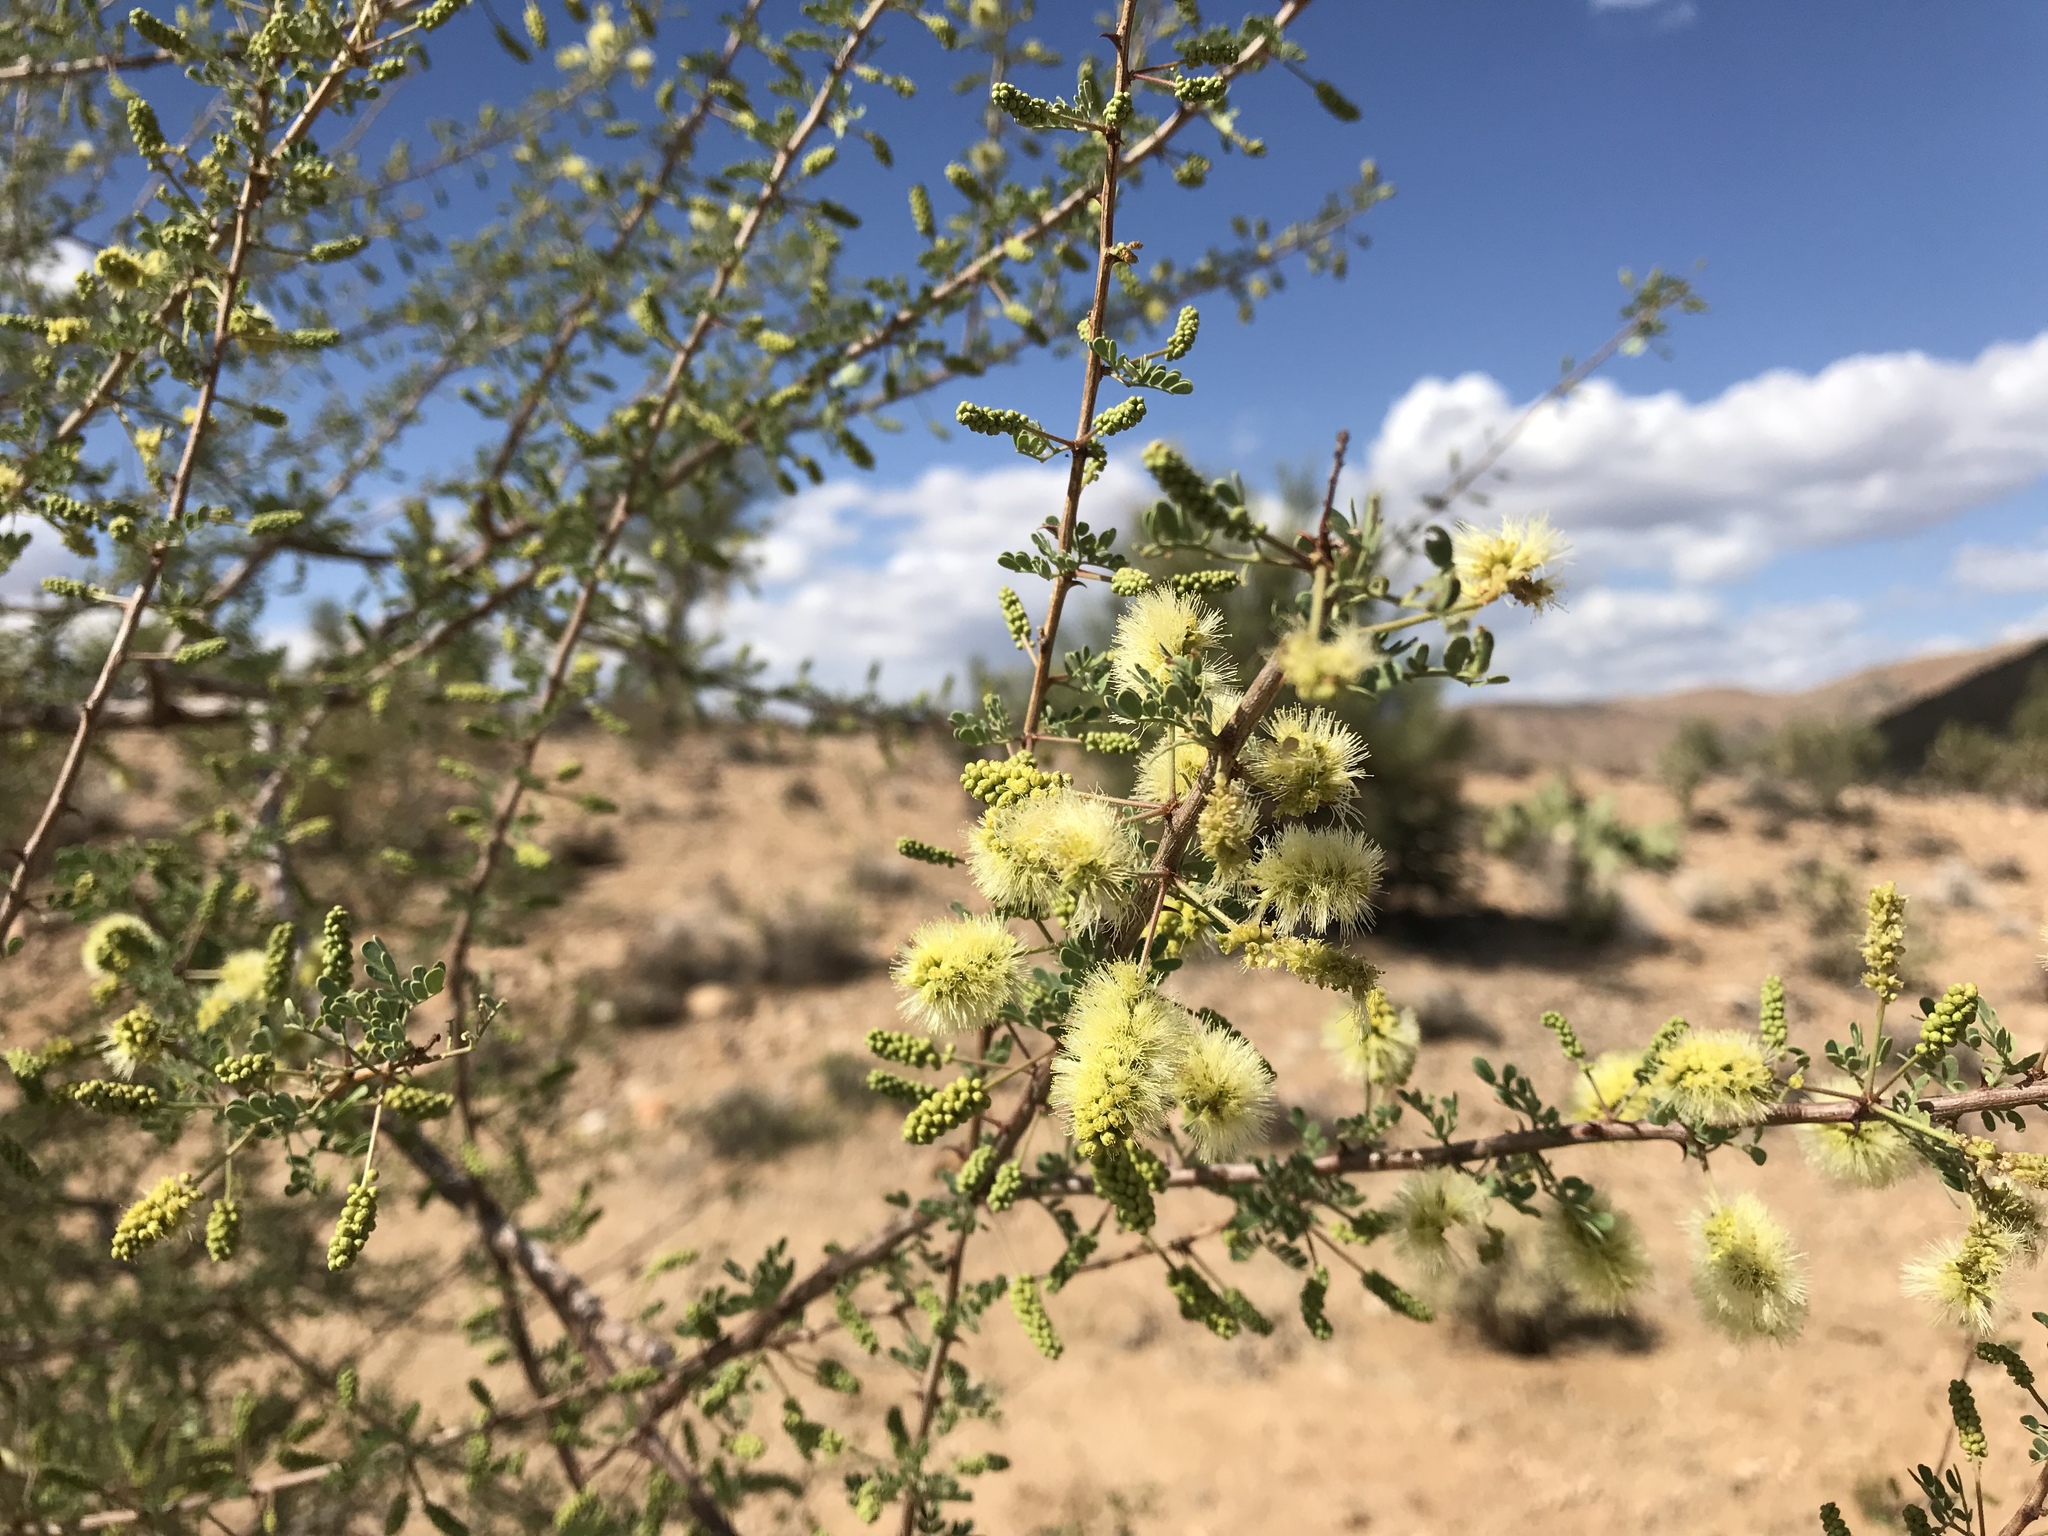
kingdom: Plantae
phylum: Tracheophyta
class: Magnoliopsida
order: Fabales
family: Fabaceae
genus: Senegalia
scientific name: Senegalia greggii
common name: Texas-mimosa
